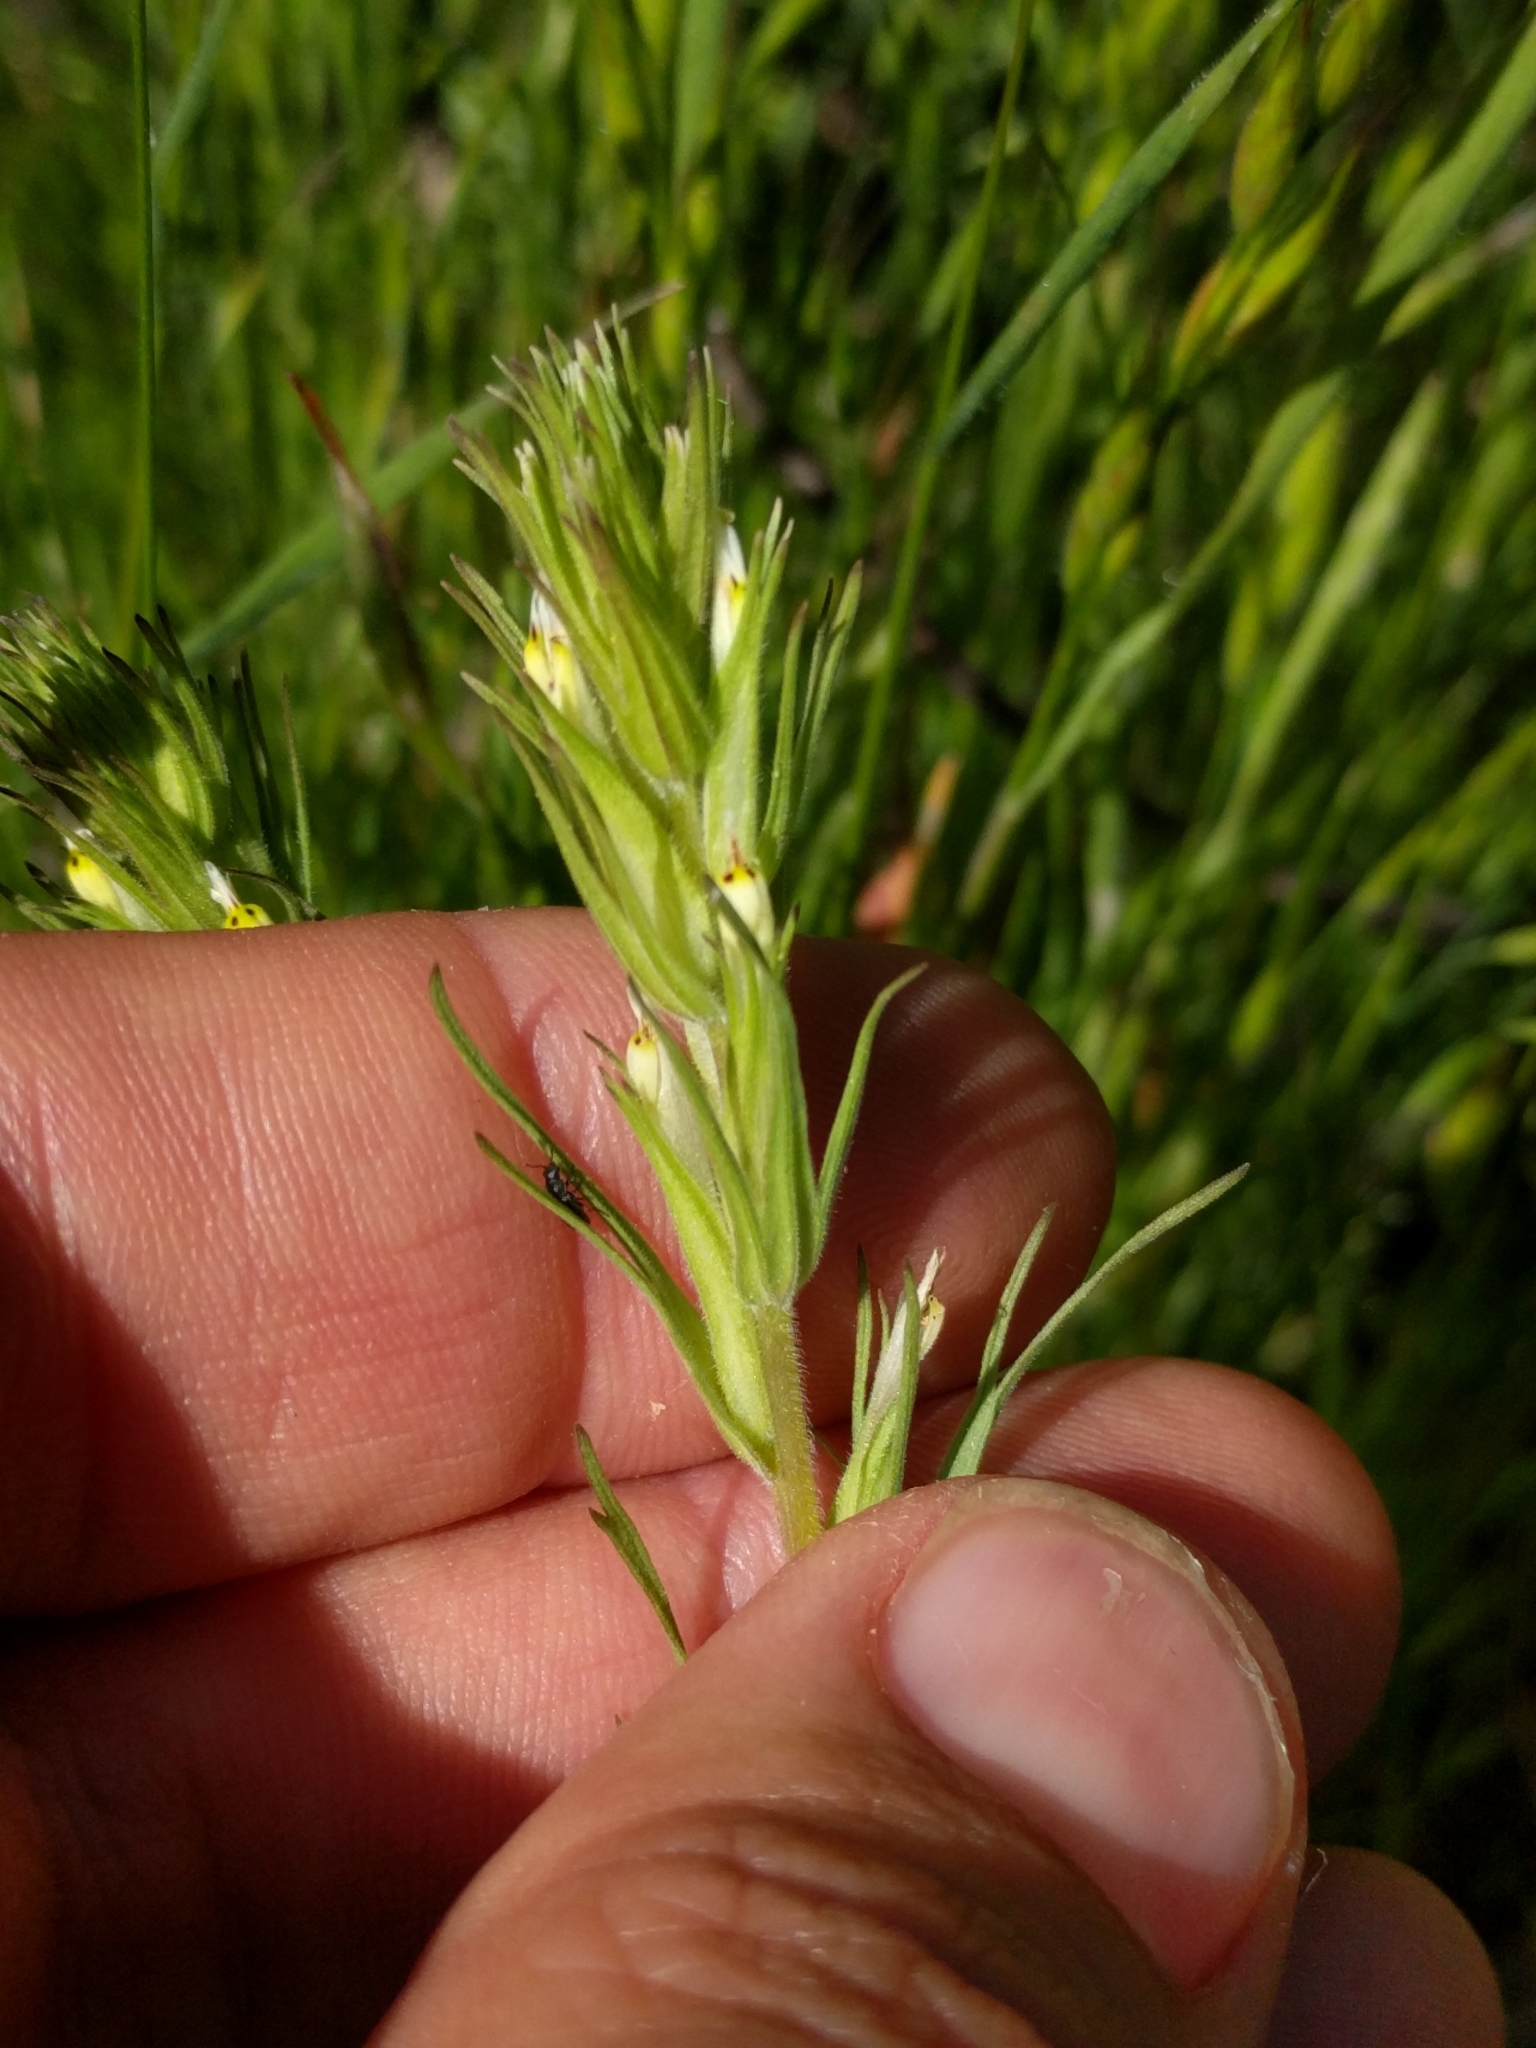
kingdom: Plantae
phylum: Tracheophyta
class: Magnoliopsida
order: Lamiales
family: Orobanchaceae
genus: Castilleja
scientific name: Castilleja attenuata
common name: Valley tassels
